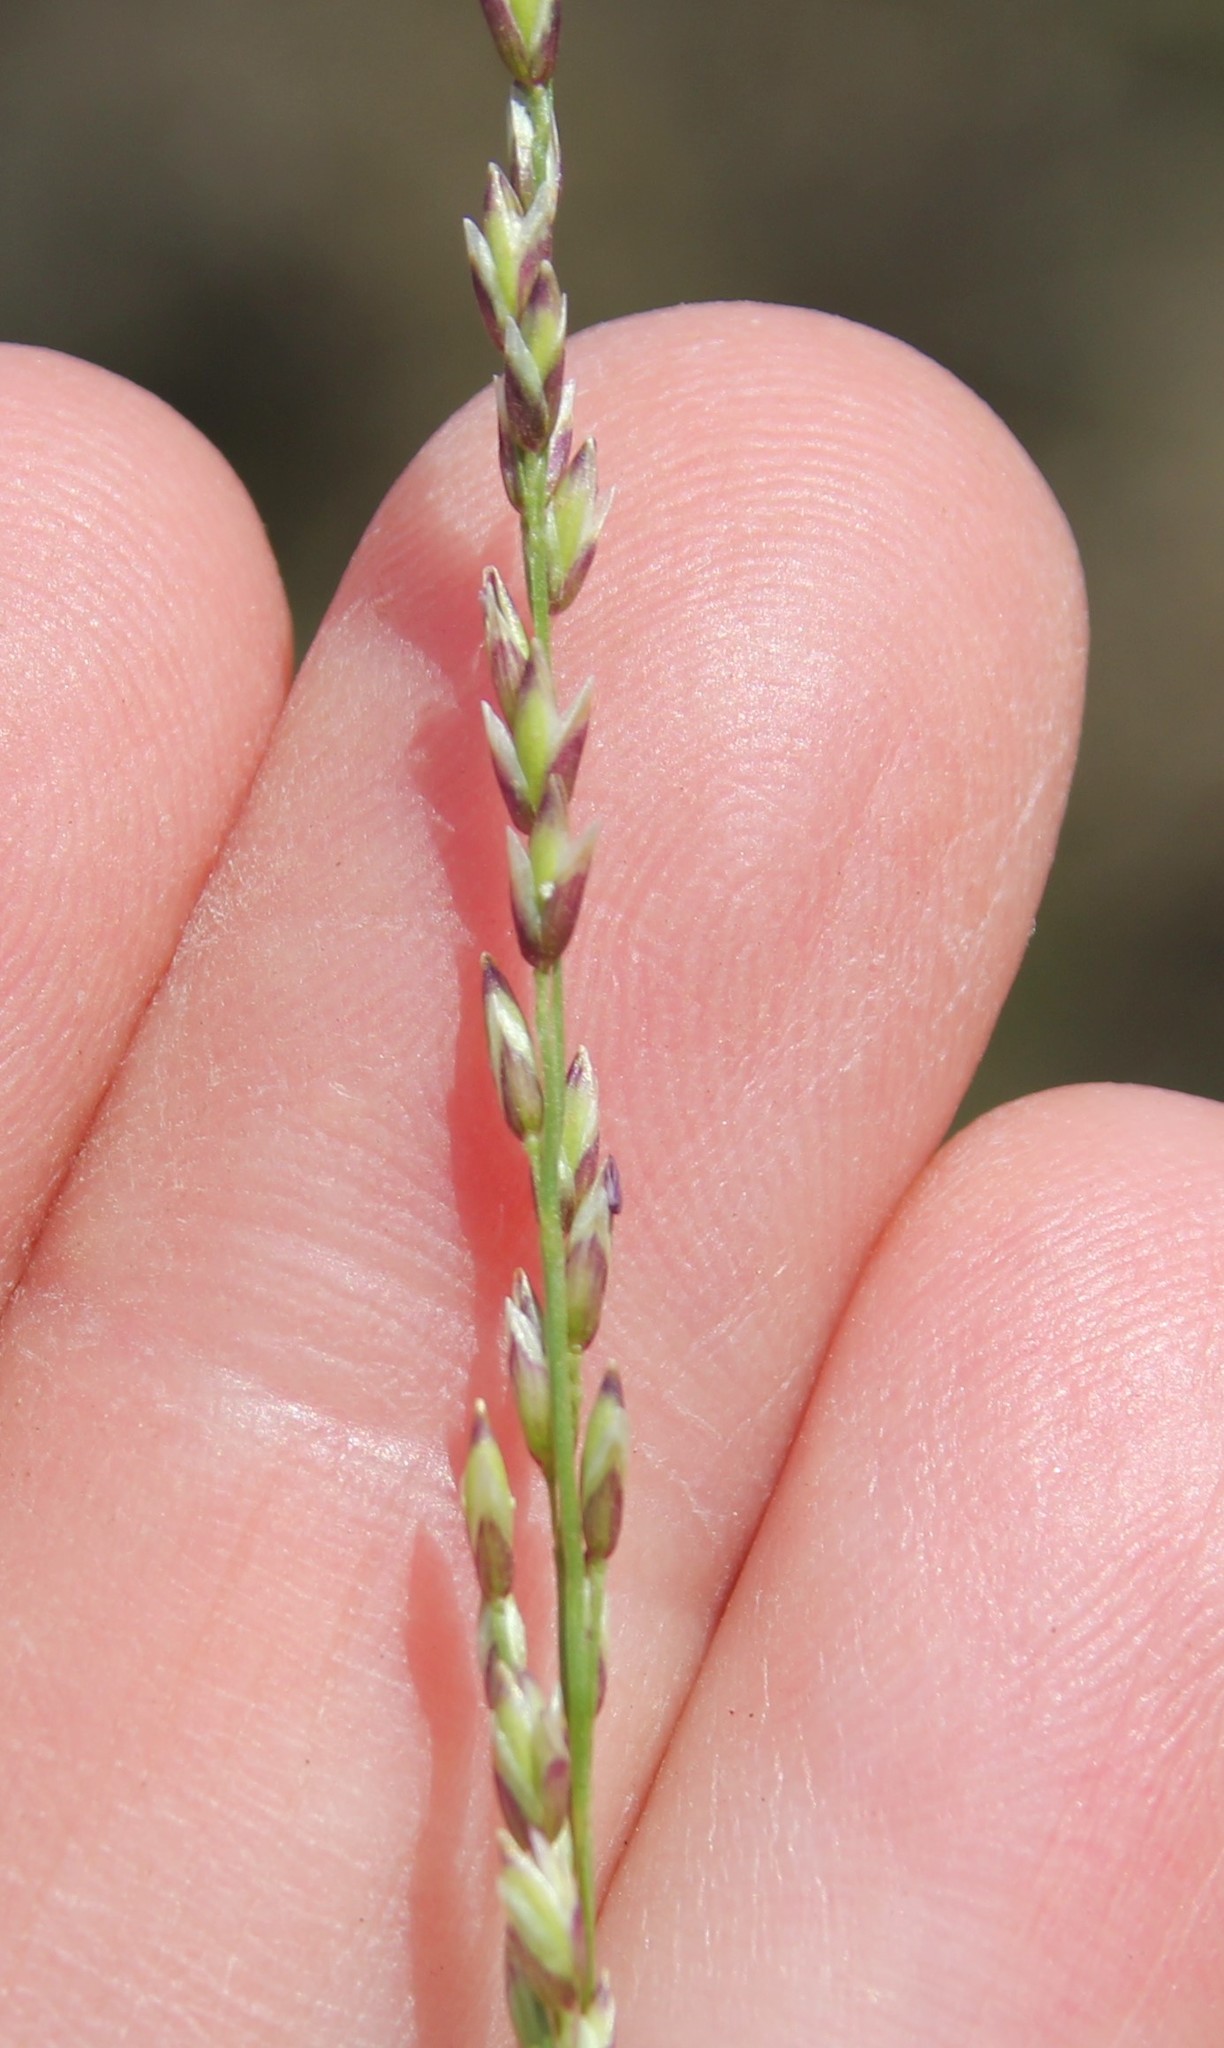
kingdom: Plantae
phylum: Tracheophyta
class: Liliopsida
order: Poales
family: Poaceae
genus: Melica
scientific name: Melica imperfecta
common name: California melic
